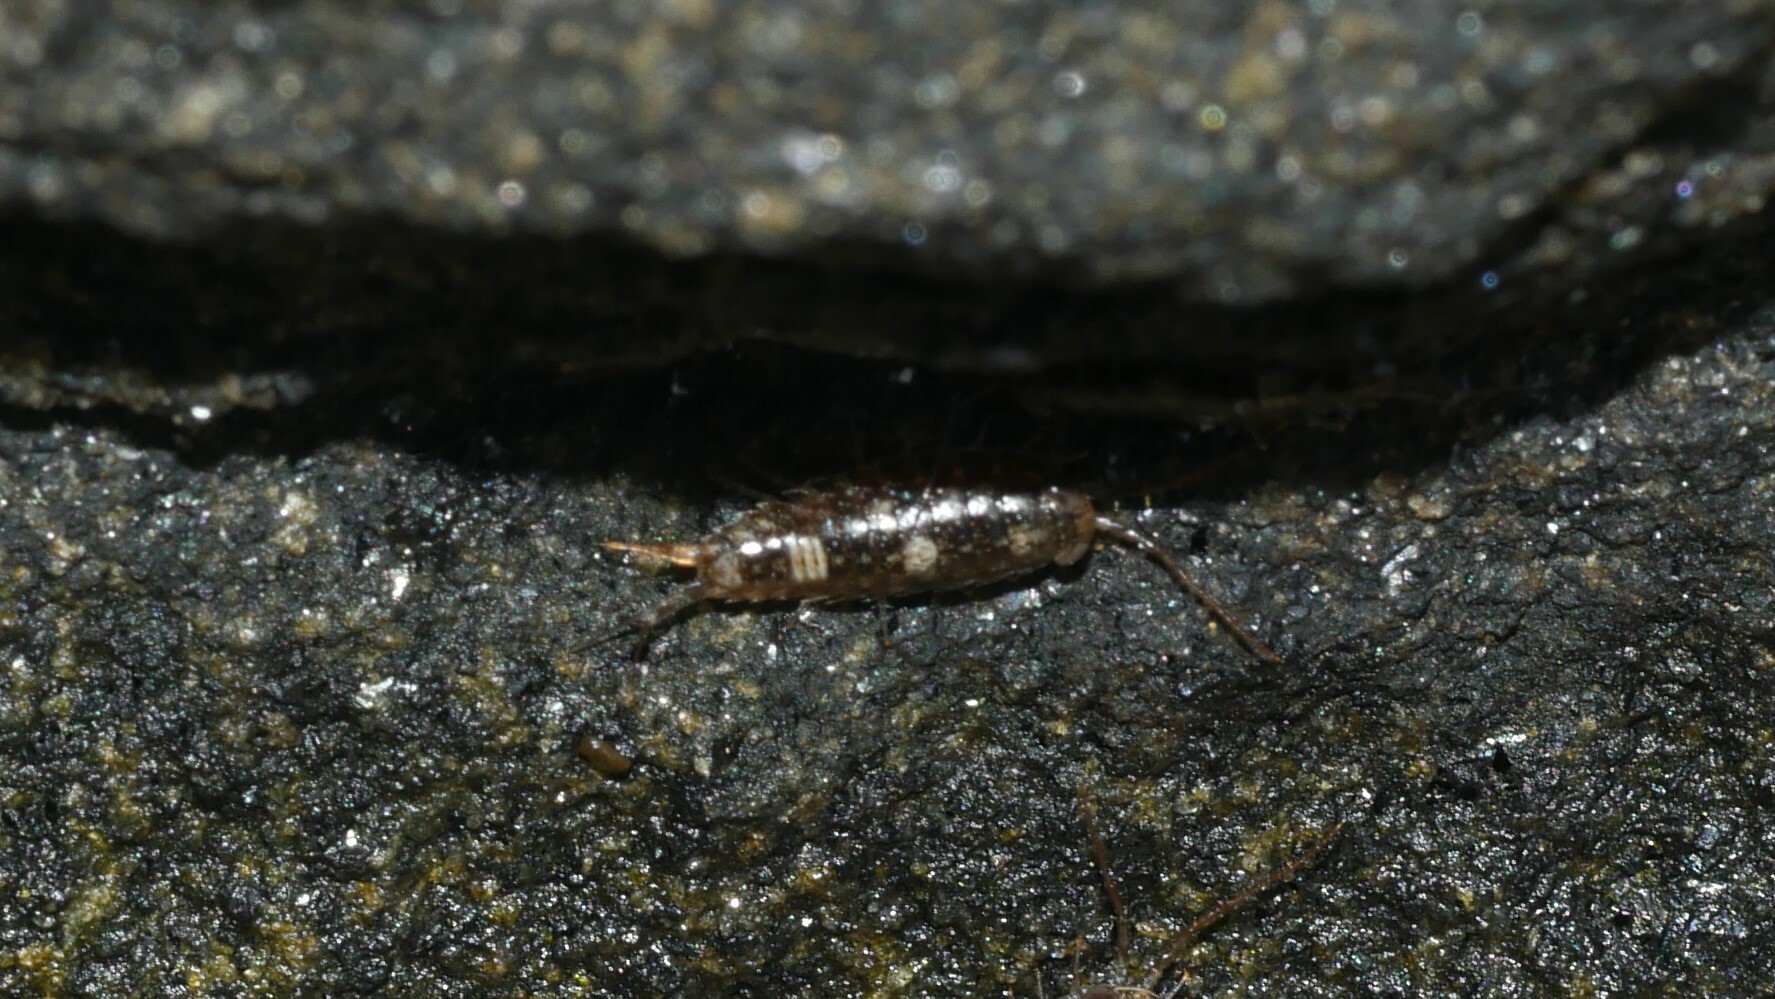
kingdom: Animalia
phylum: Arthropoda
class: Malacostraca
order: Isopoda
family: Ligiidae
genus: Ligia
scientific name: Ligia exotica
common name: Wharf roach
